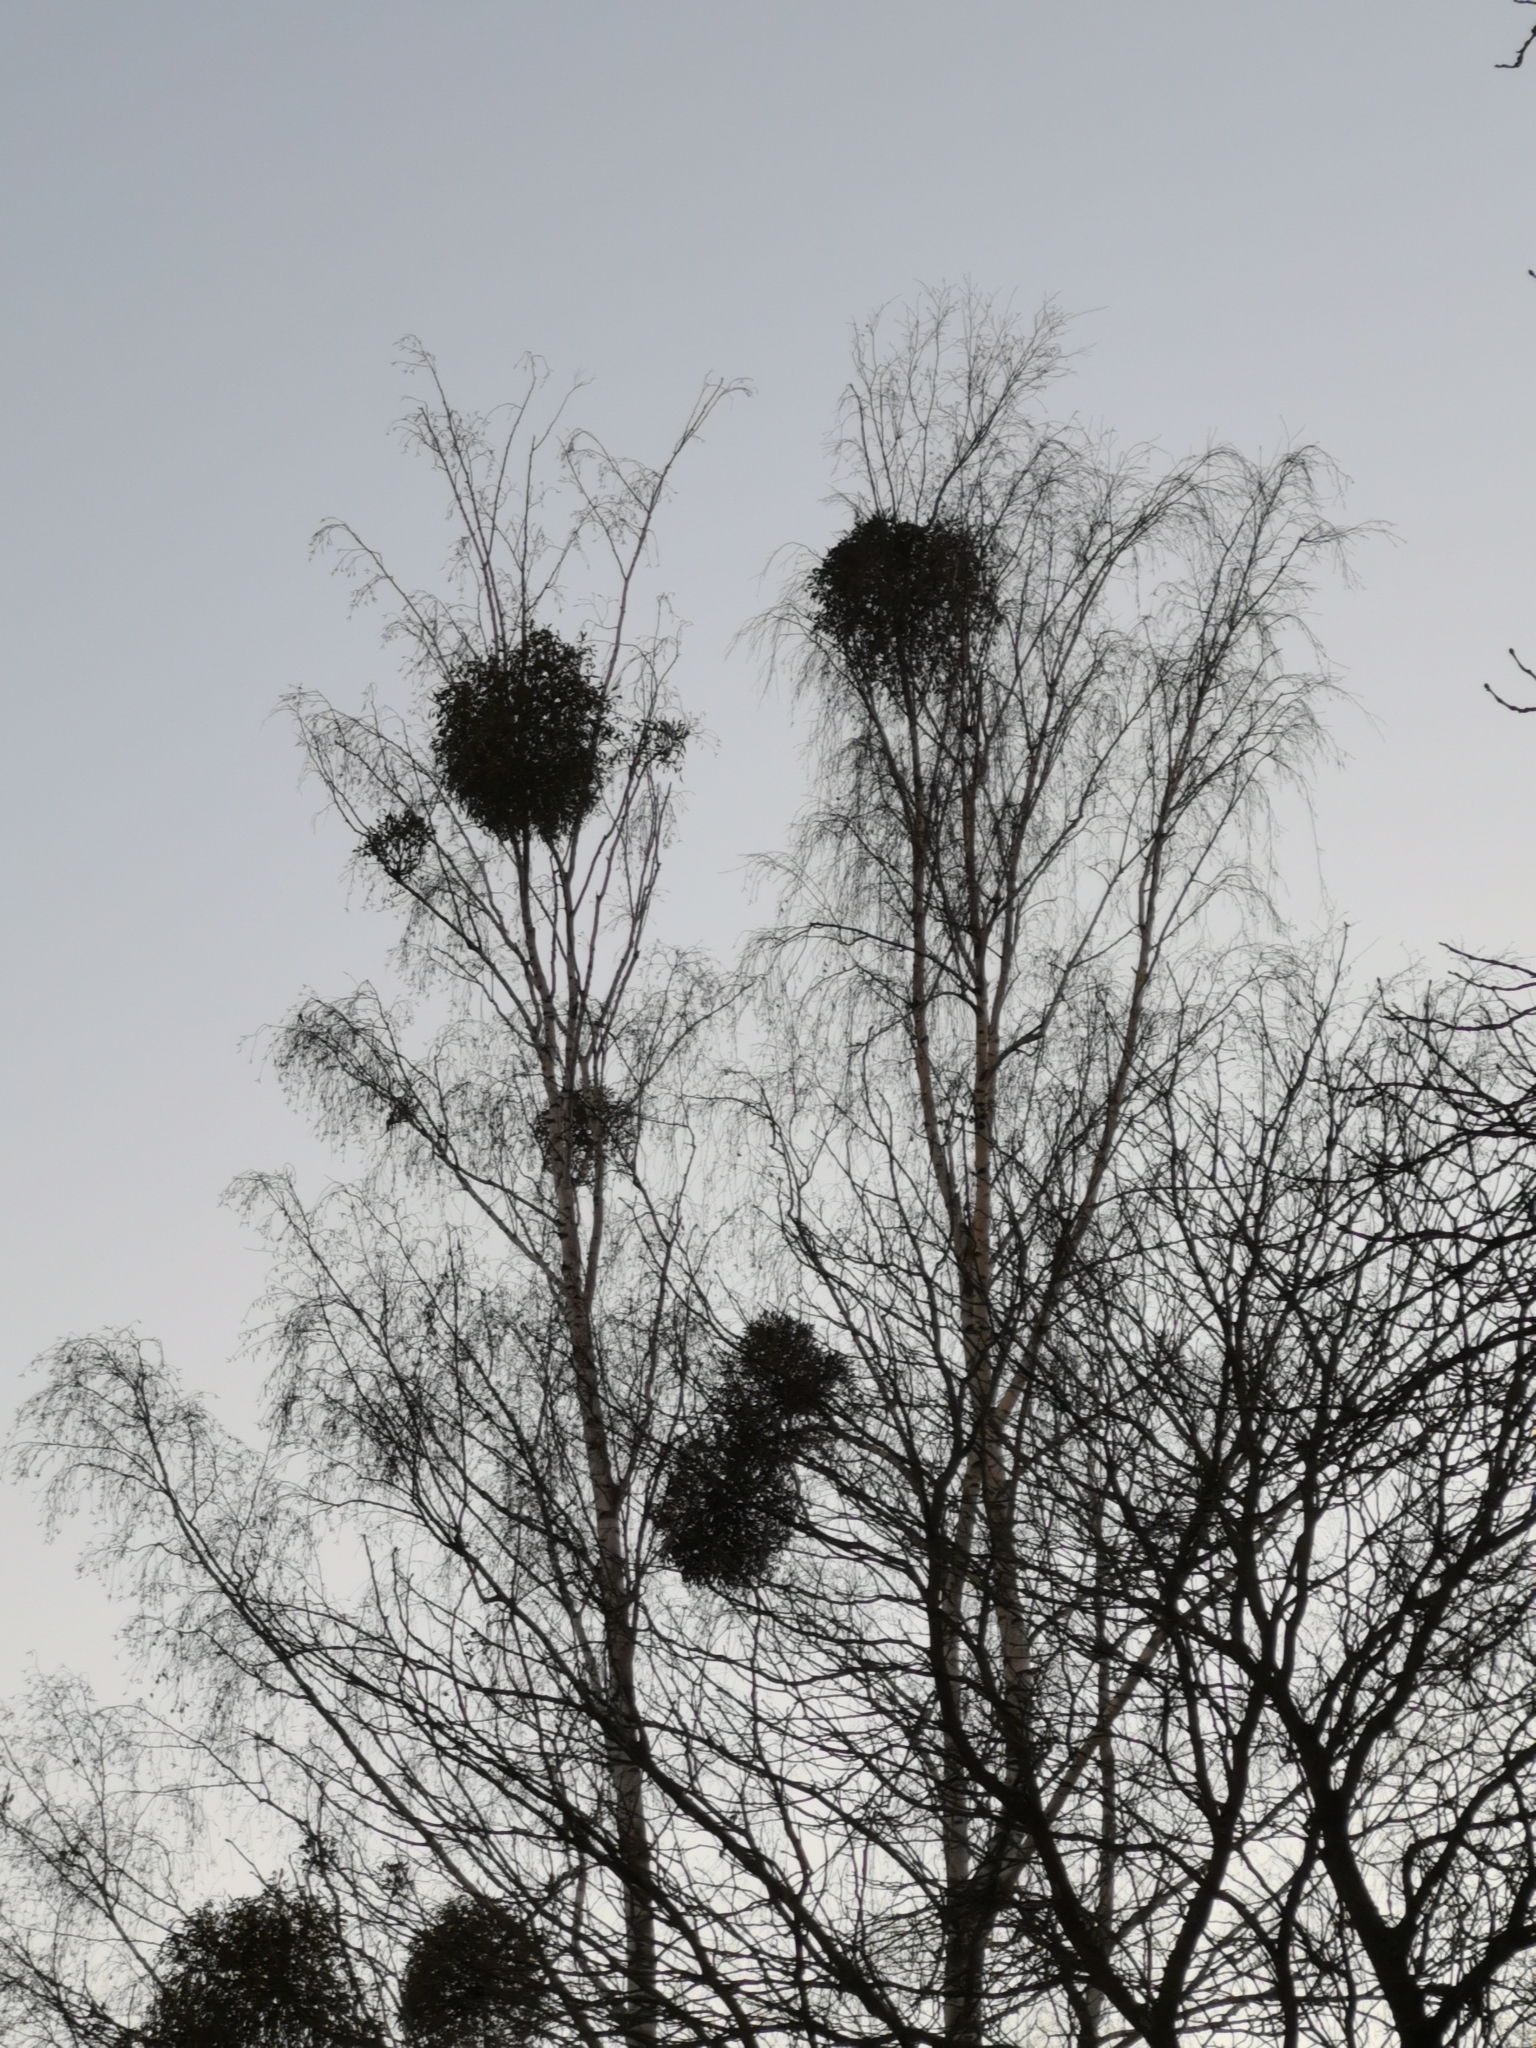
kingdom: Plantae
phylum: Tracheophyta
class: Magnoliopsida
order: Santalales
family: Viscaceae
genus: Viscum
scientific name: Viscum album
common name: Mistletoe
